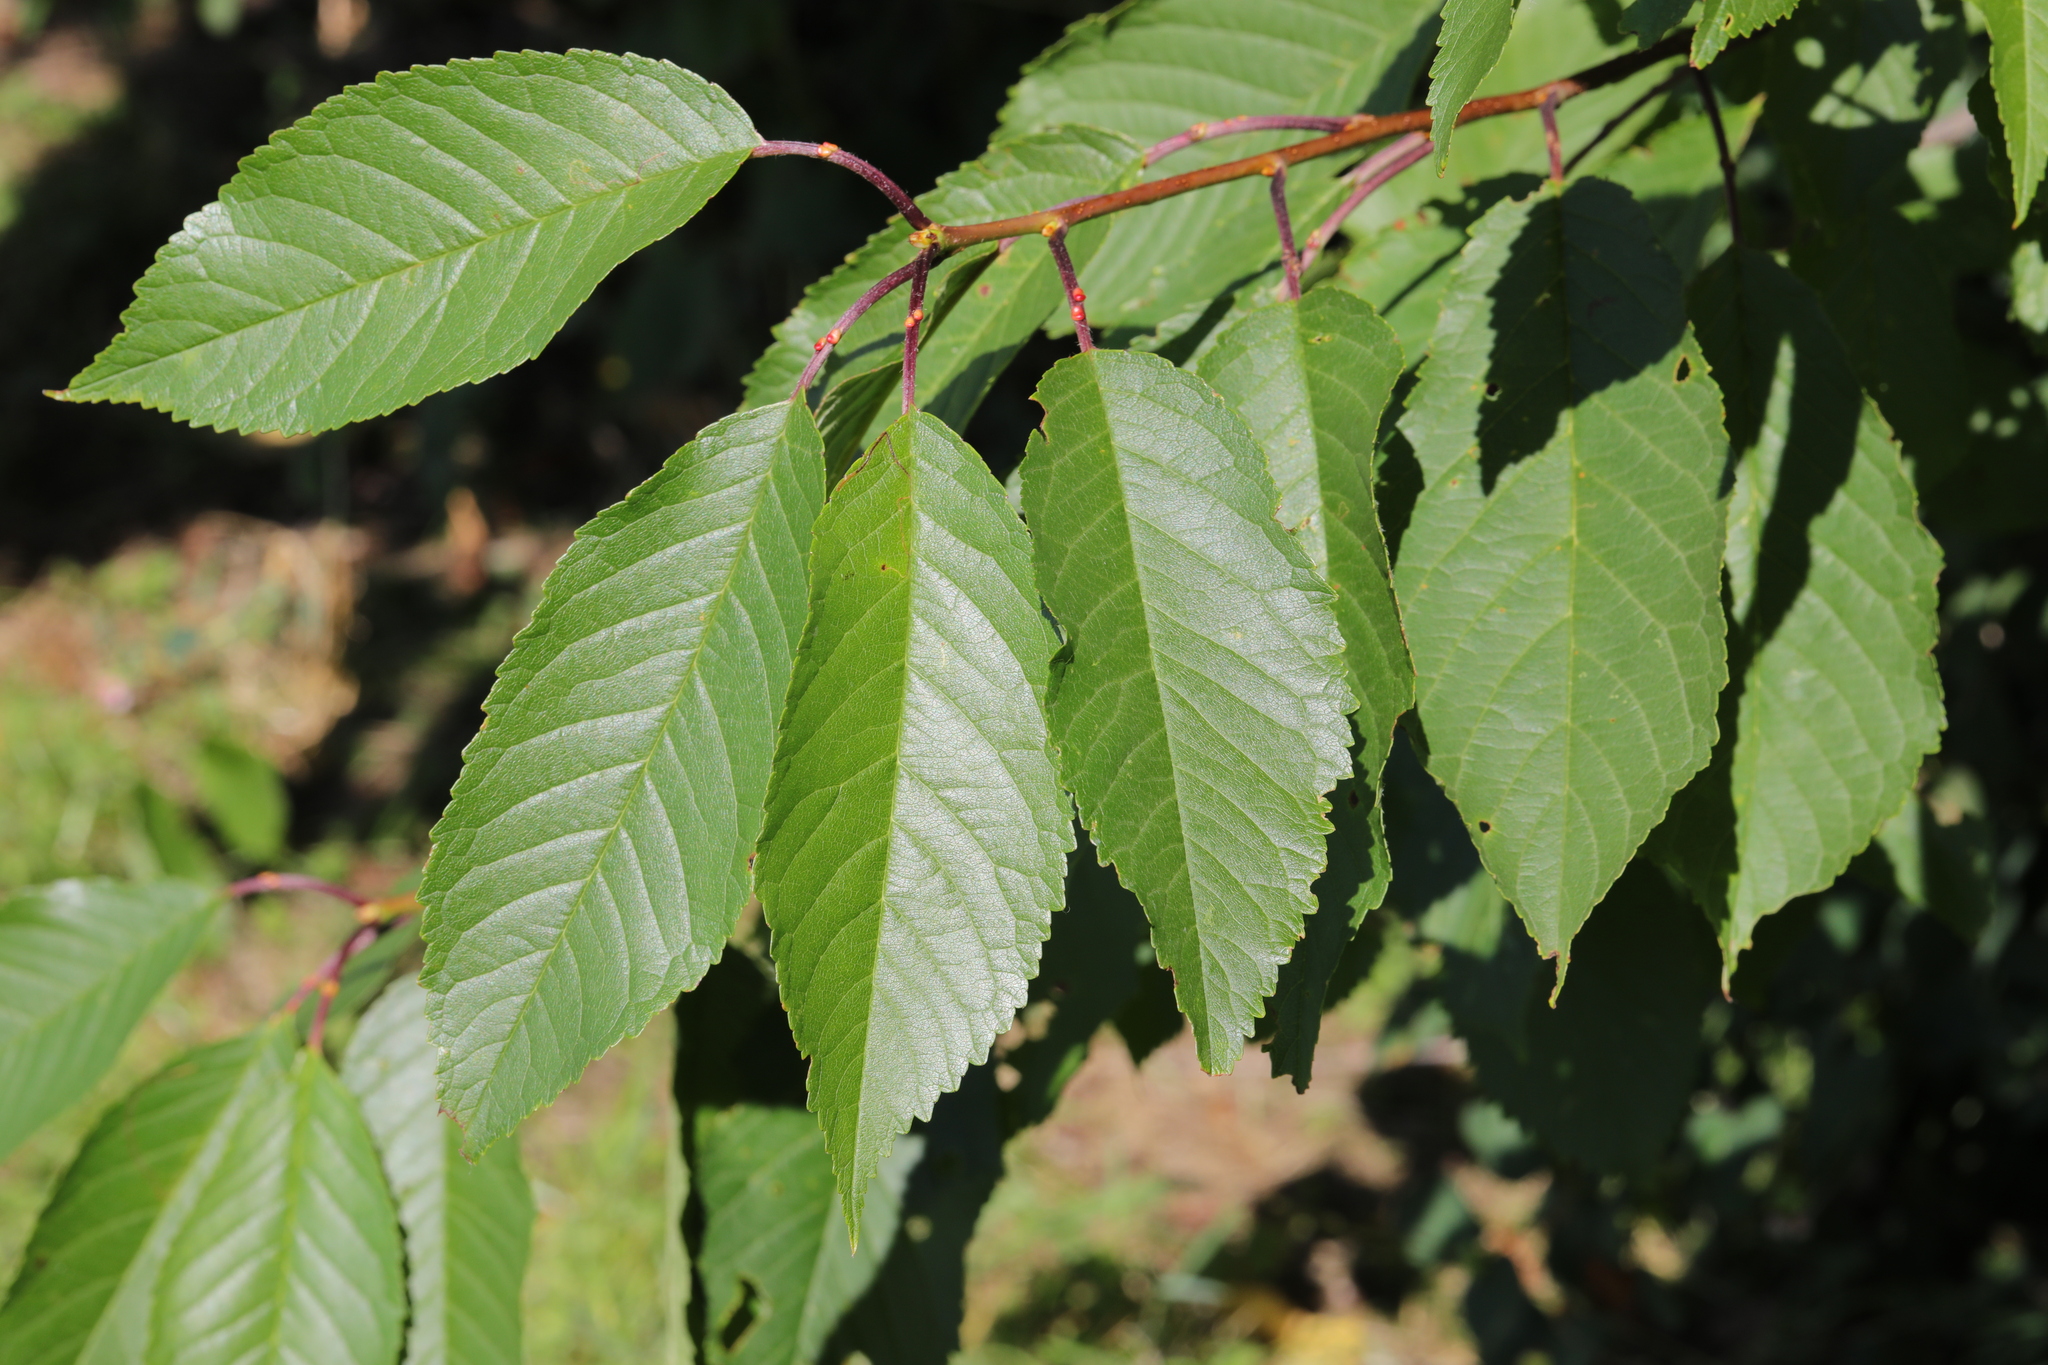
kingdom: Plantae
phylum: Tracheophyta
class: Magnoliopsida
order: Rosales
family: Rosaceae
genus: Prunus
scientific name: Prunus avium
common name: Sweet cherry
